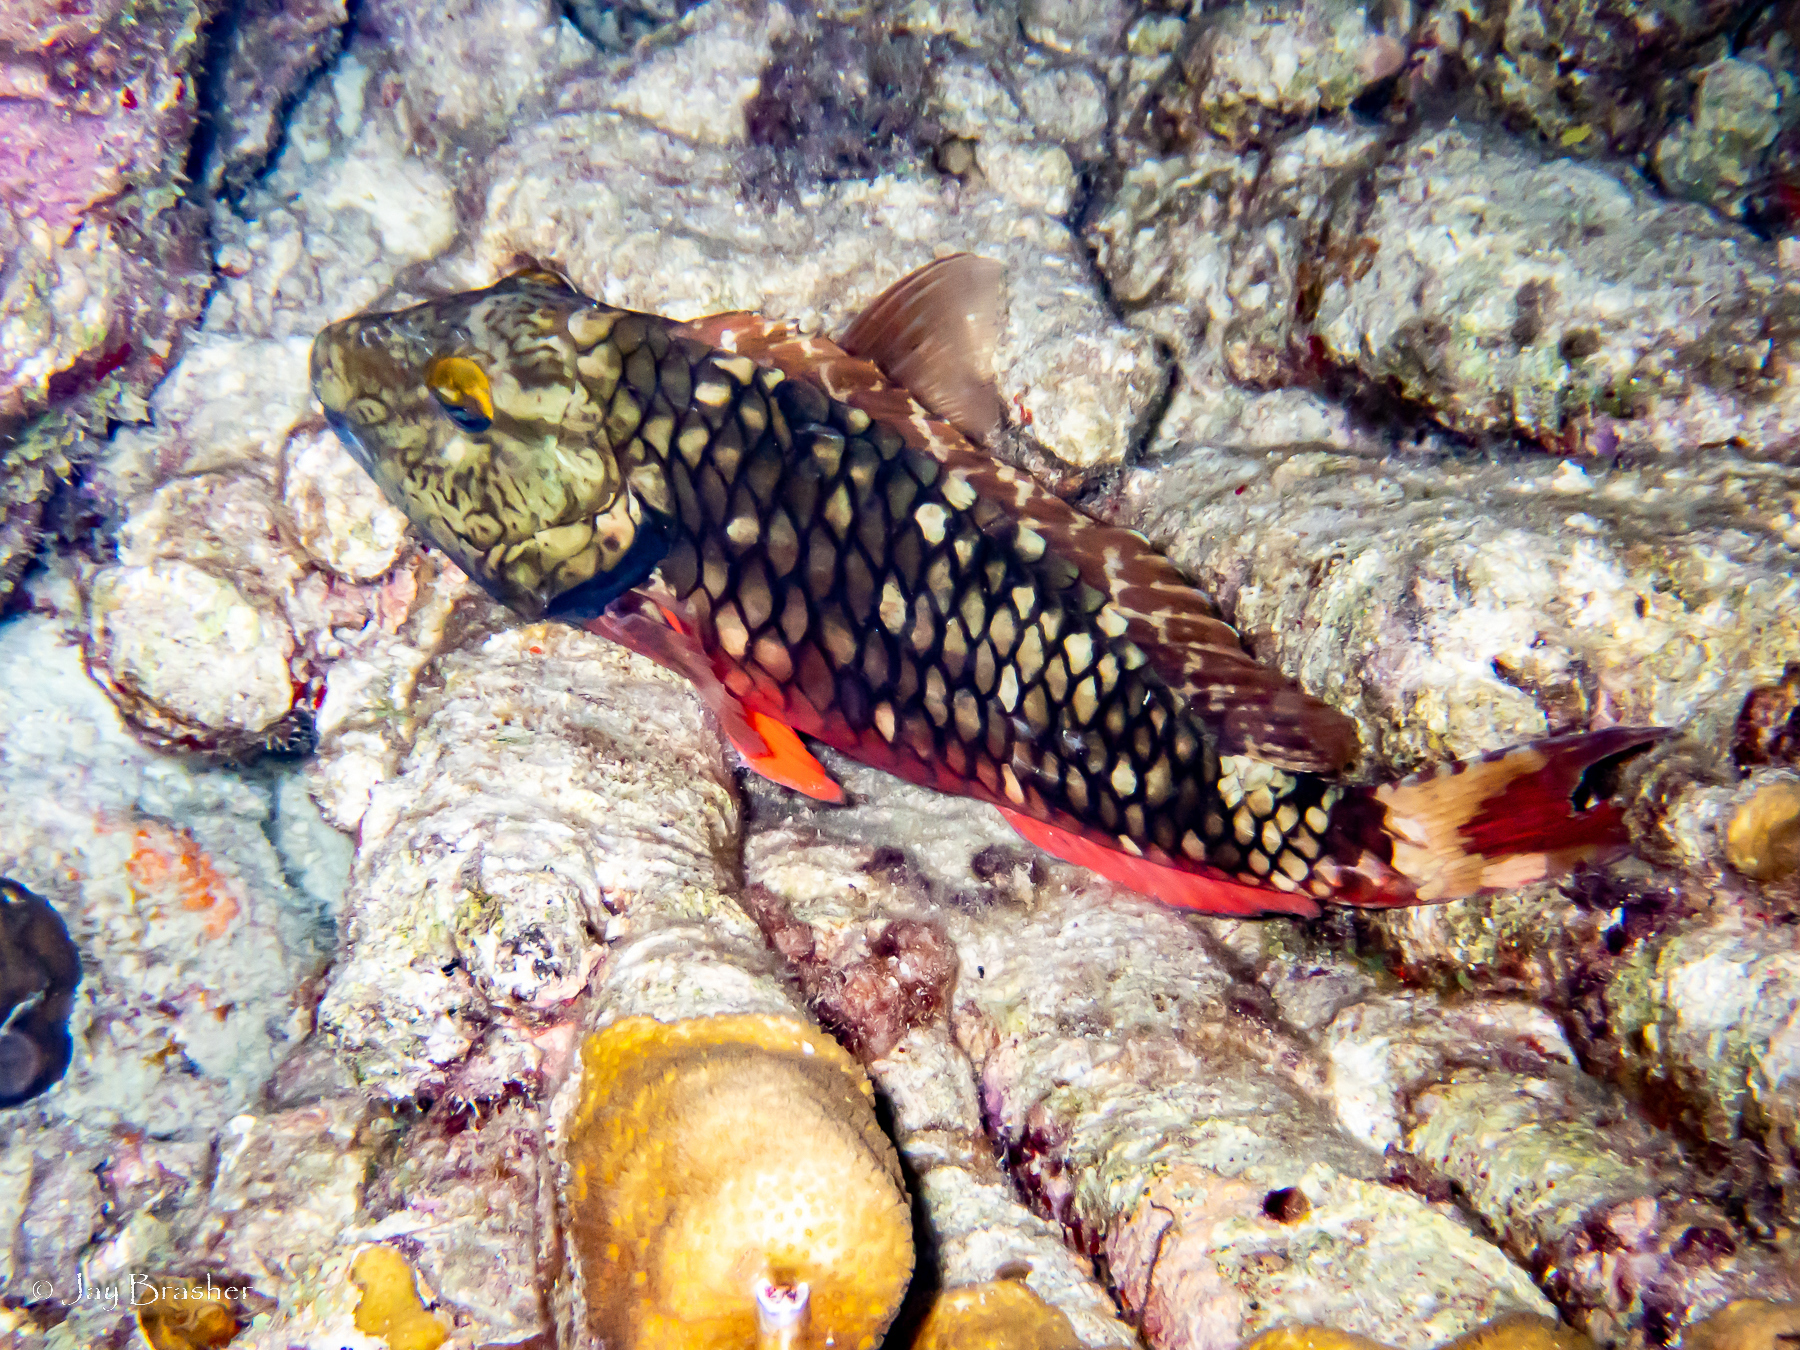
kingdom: Animalia
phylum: Chordata
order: Perciformes
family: Scaridae
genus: Sparisoma
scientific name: Sparisoma viride
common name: Stoplight parrotfish
